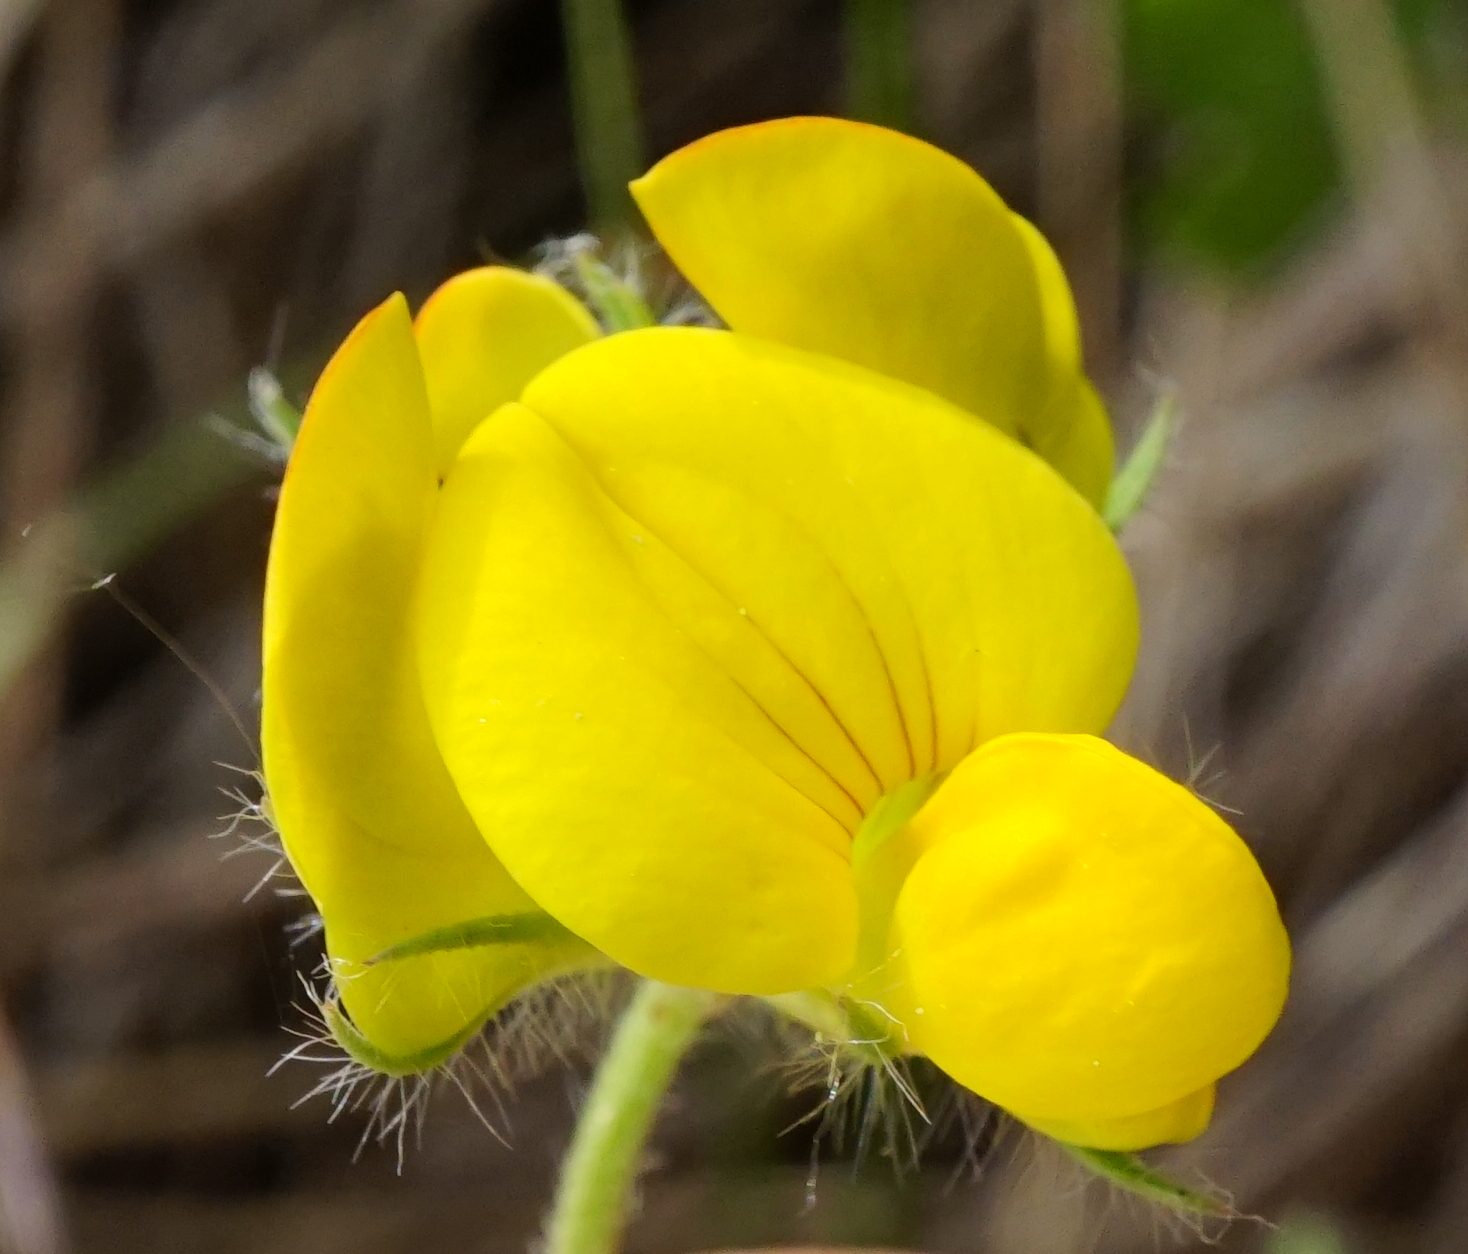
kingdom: Plantae
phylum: Tracheophyta
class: Magnoliopsida
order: Fabales
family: Fabaceae
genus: Lotus
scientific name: Lotus borbasii
